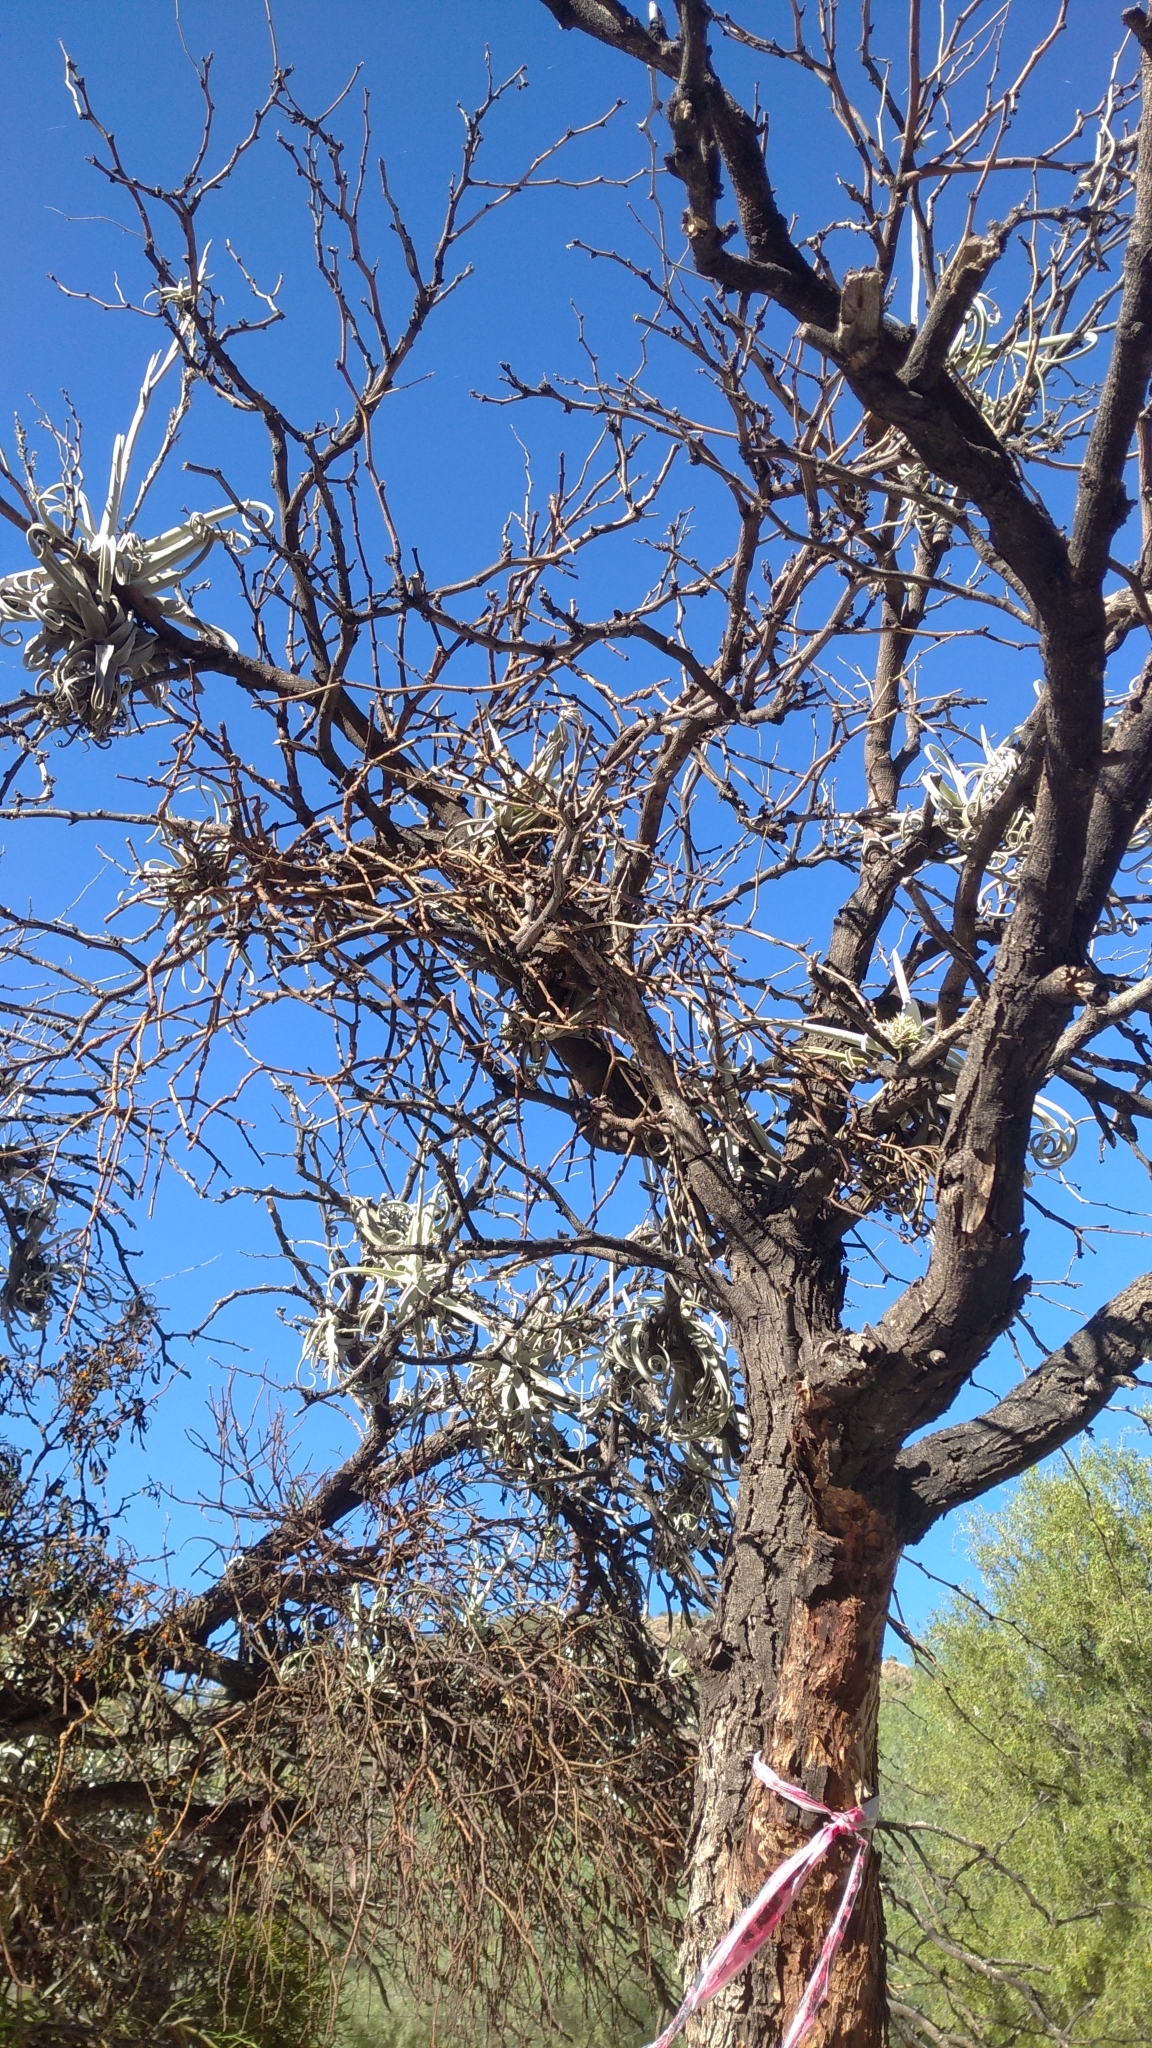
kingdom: Plantae
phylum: Tracheophyta
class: Liliopsida
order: Poales
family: Bromeliaceae
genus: Tillandsia
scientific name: Tillandsia duratii
